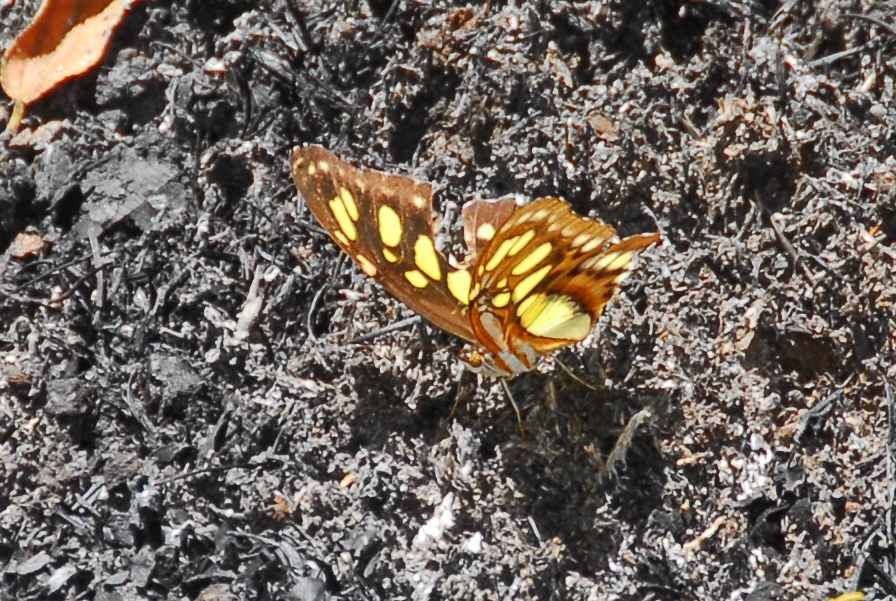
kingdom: Animalia
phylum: Arthropoda
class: Insecta
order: Lepidoptera
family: Nymphalidae
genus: Siproeta
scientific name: Siproeta stelenes
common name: Malachite
